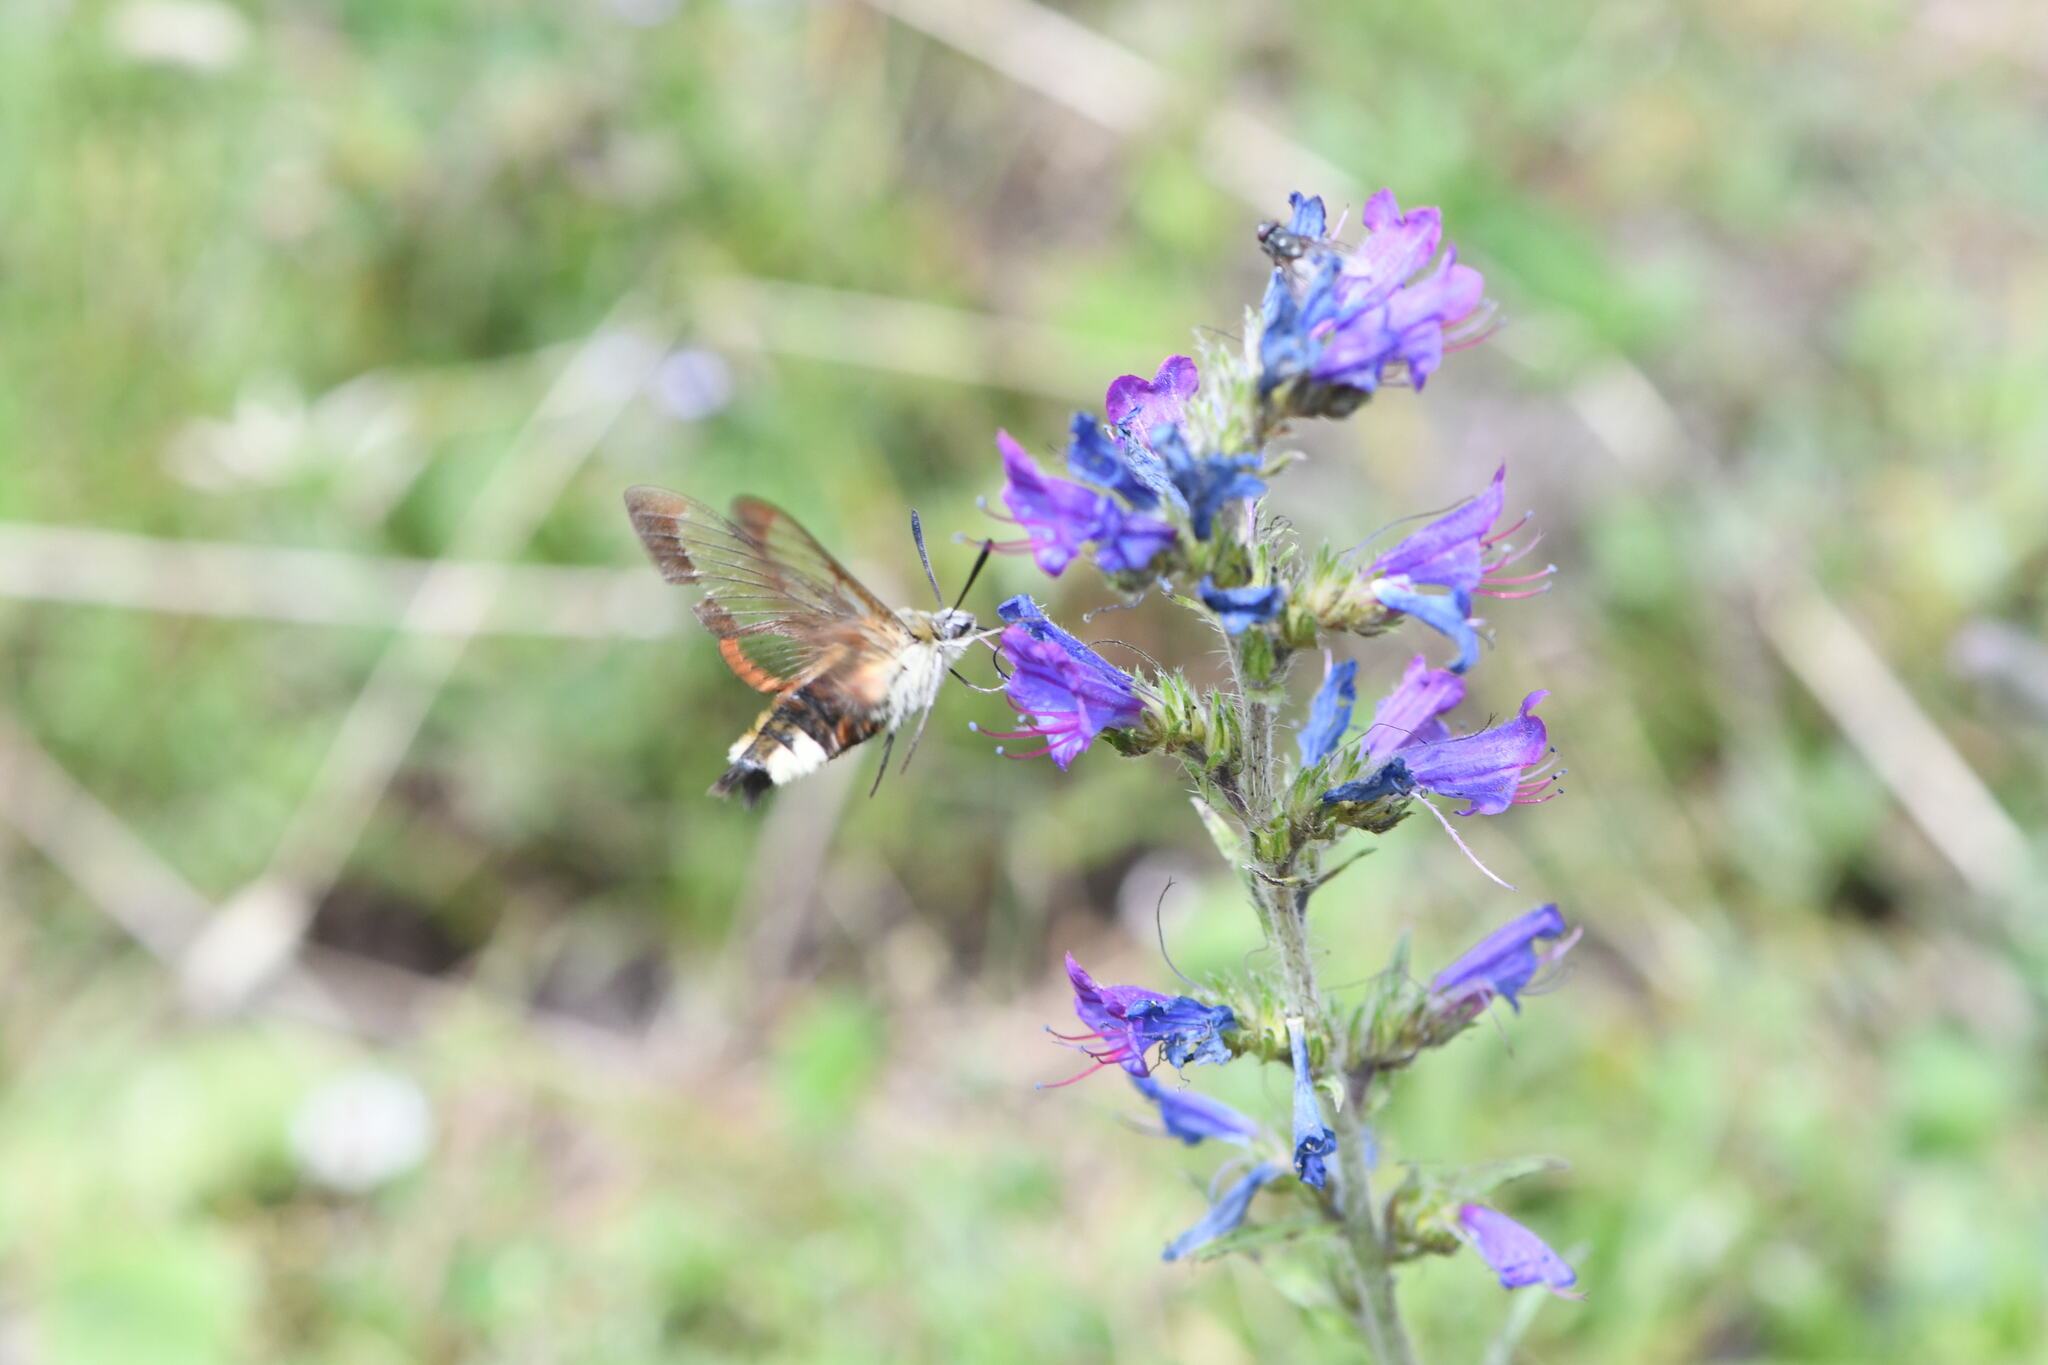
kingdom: Animalia
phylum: Arthropoda
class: Insecta
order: Lepidoptera
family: Sphingidae
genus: Hemaris
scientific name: Hemaris fuciformis
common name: Broad-bordered bee hawk-moth
